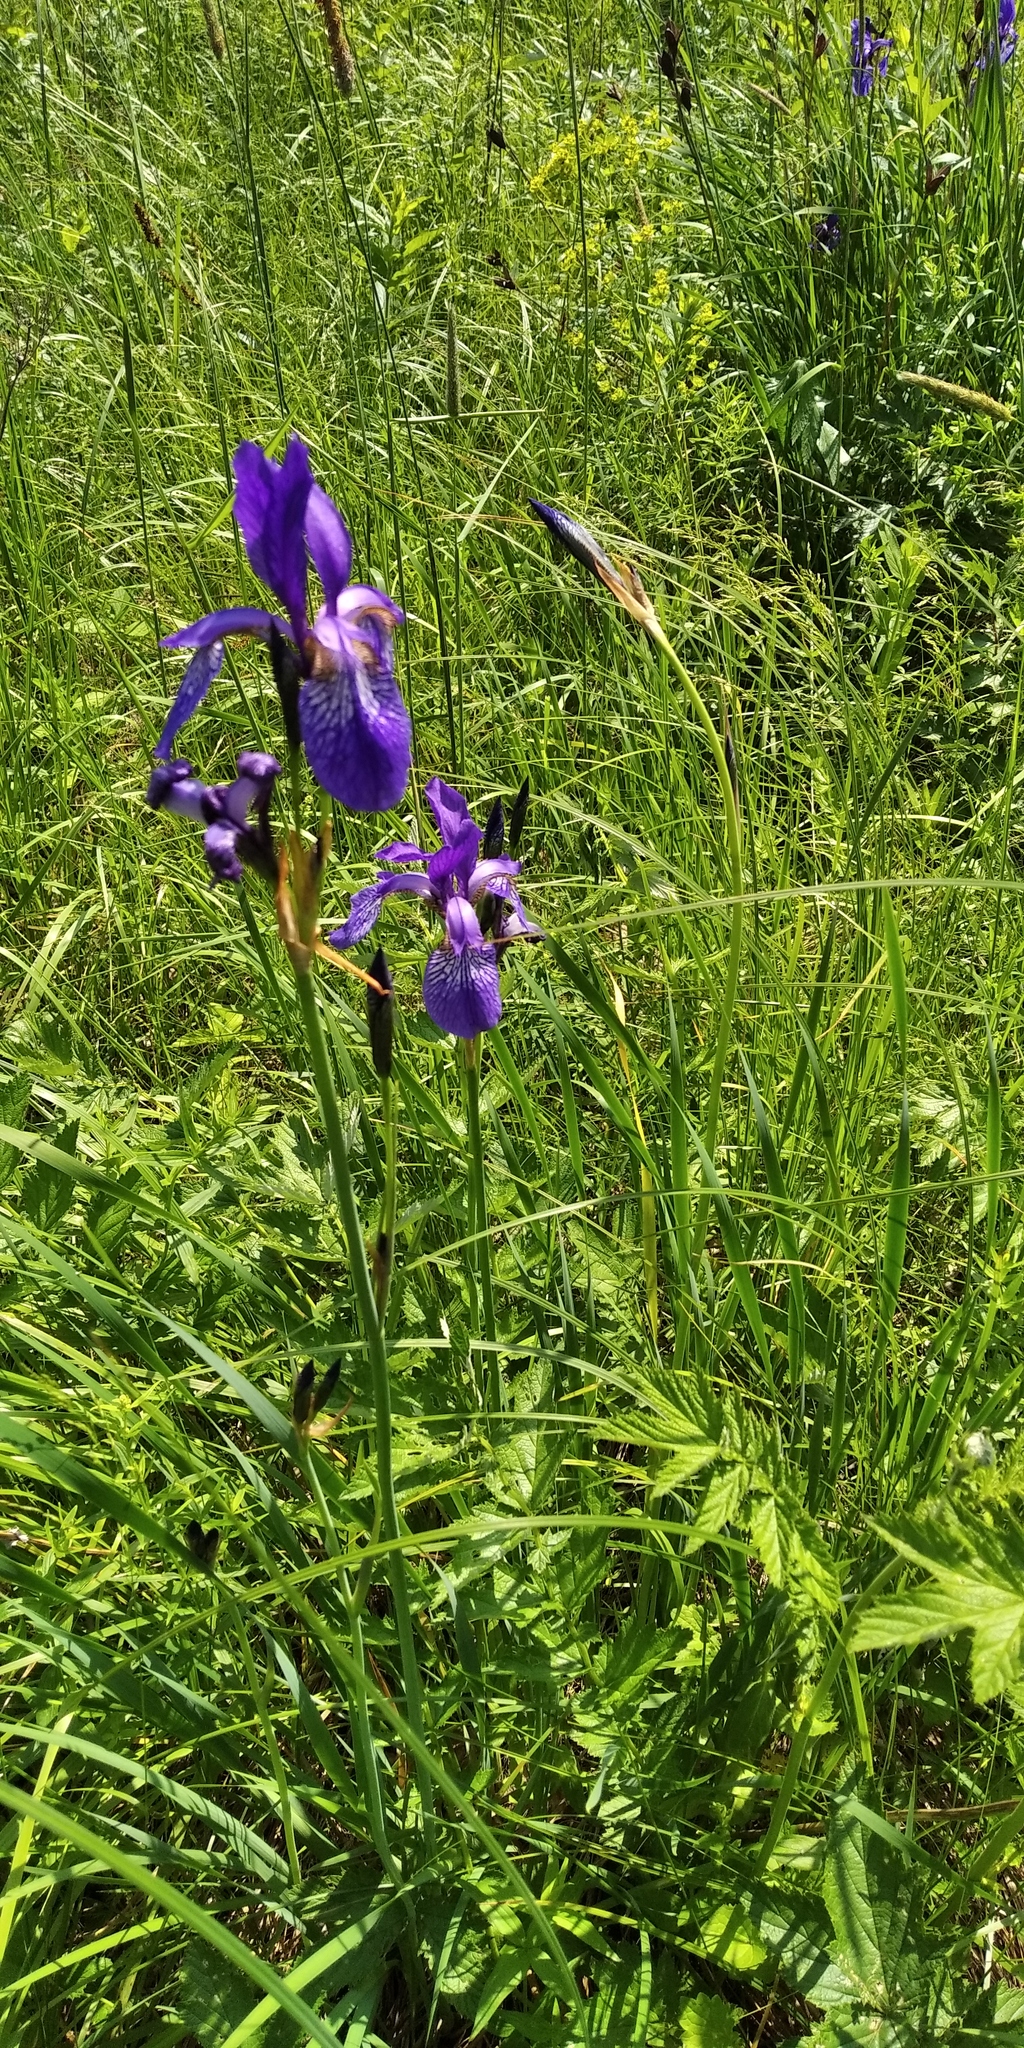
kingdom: Plantae
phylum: Tracheophyta
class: Liliopsida
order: Asparagales
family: Iridaceae
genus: Iris
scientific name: Iris sibirica
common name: Siberian iris
